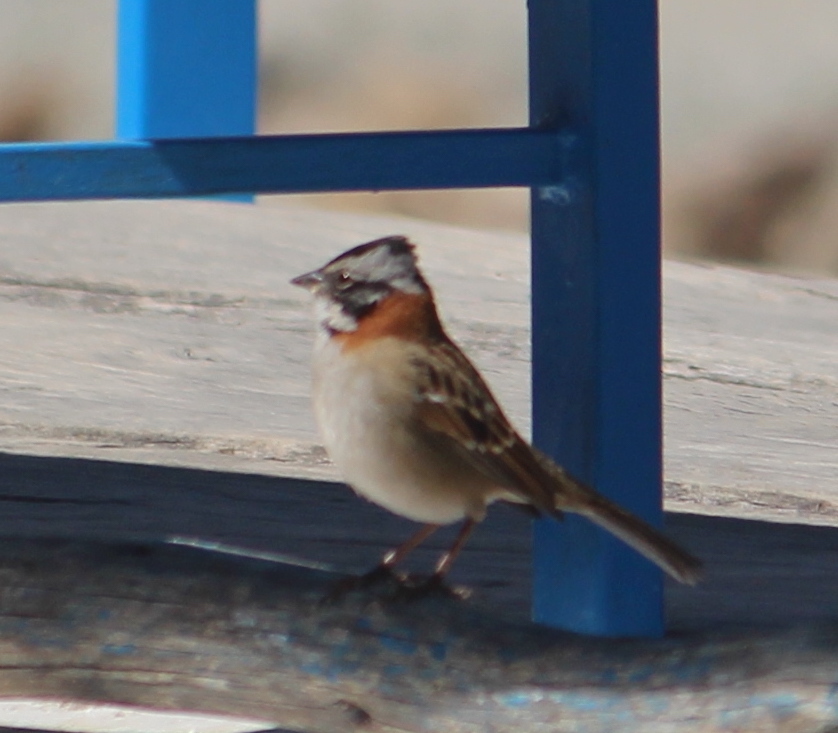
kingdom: Animalia
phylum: Chordata
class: Aves
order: Passeriformes
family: Passerellidae
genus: Zonotrichia
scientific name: Zonotrichia capensis
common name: Rufous-collared sparrow
